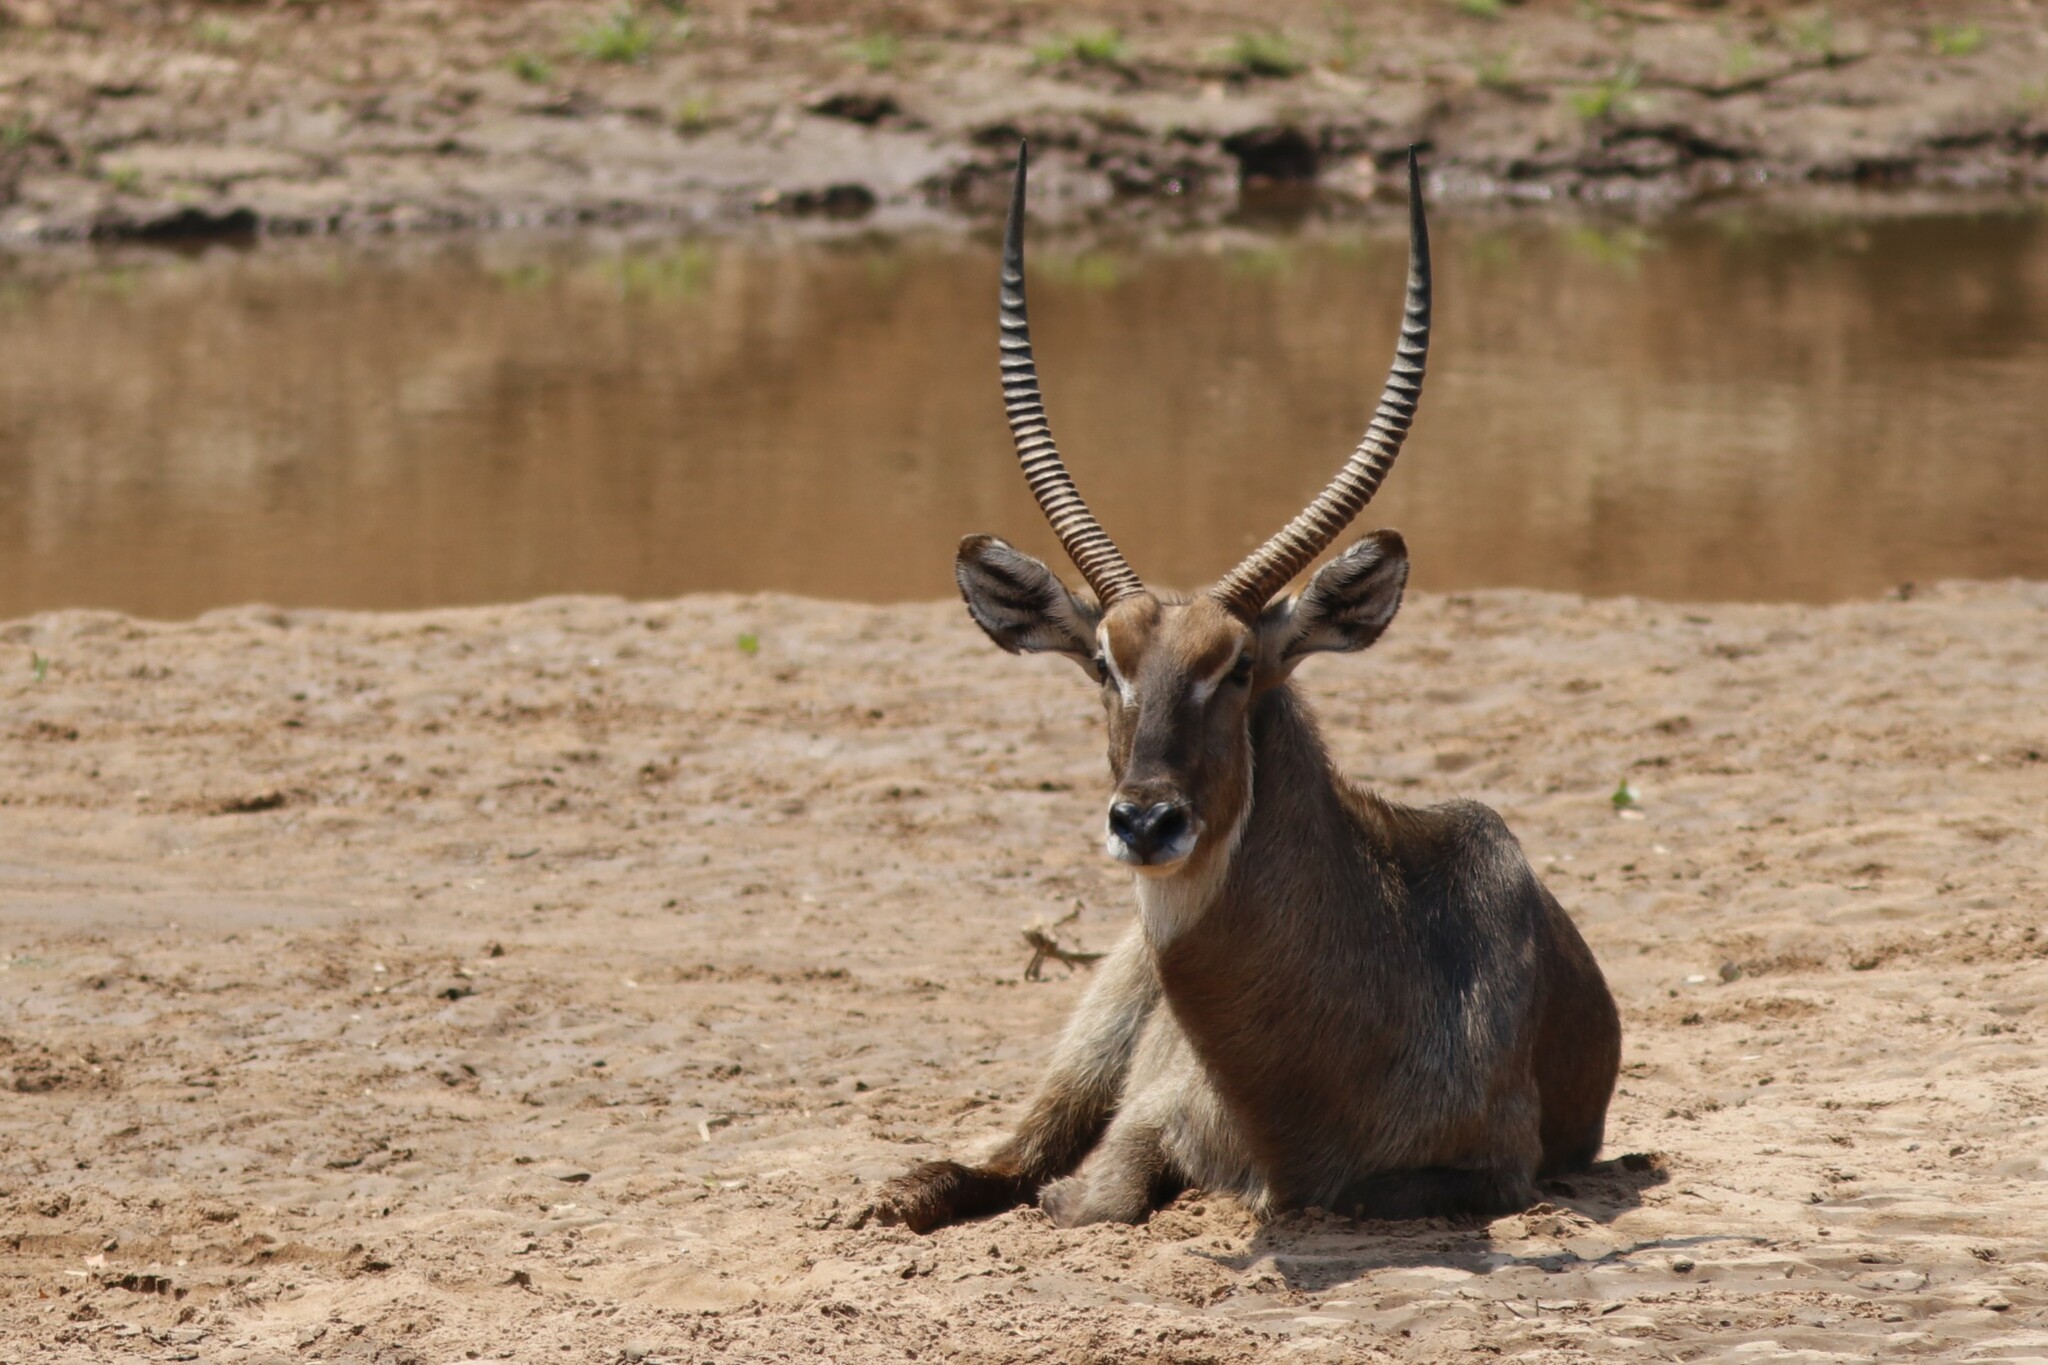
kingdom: Animalia
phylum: Chordata
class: Mammalia
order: Artiodactyla
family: Bovidae
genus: Kobus
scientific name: Kobus ellipsiprymnus
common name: Waterbuck
